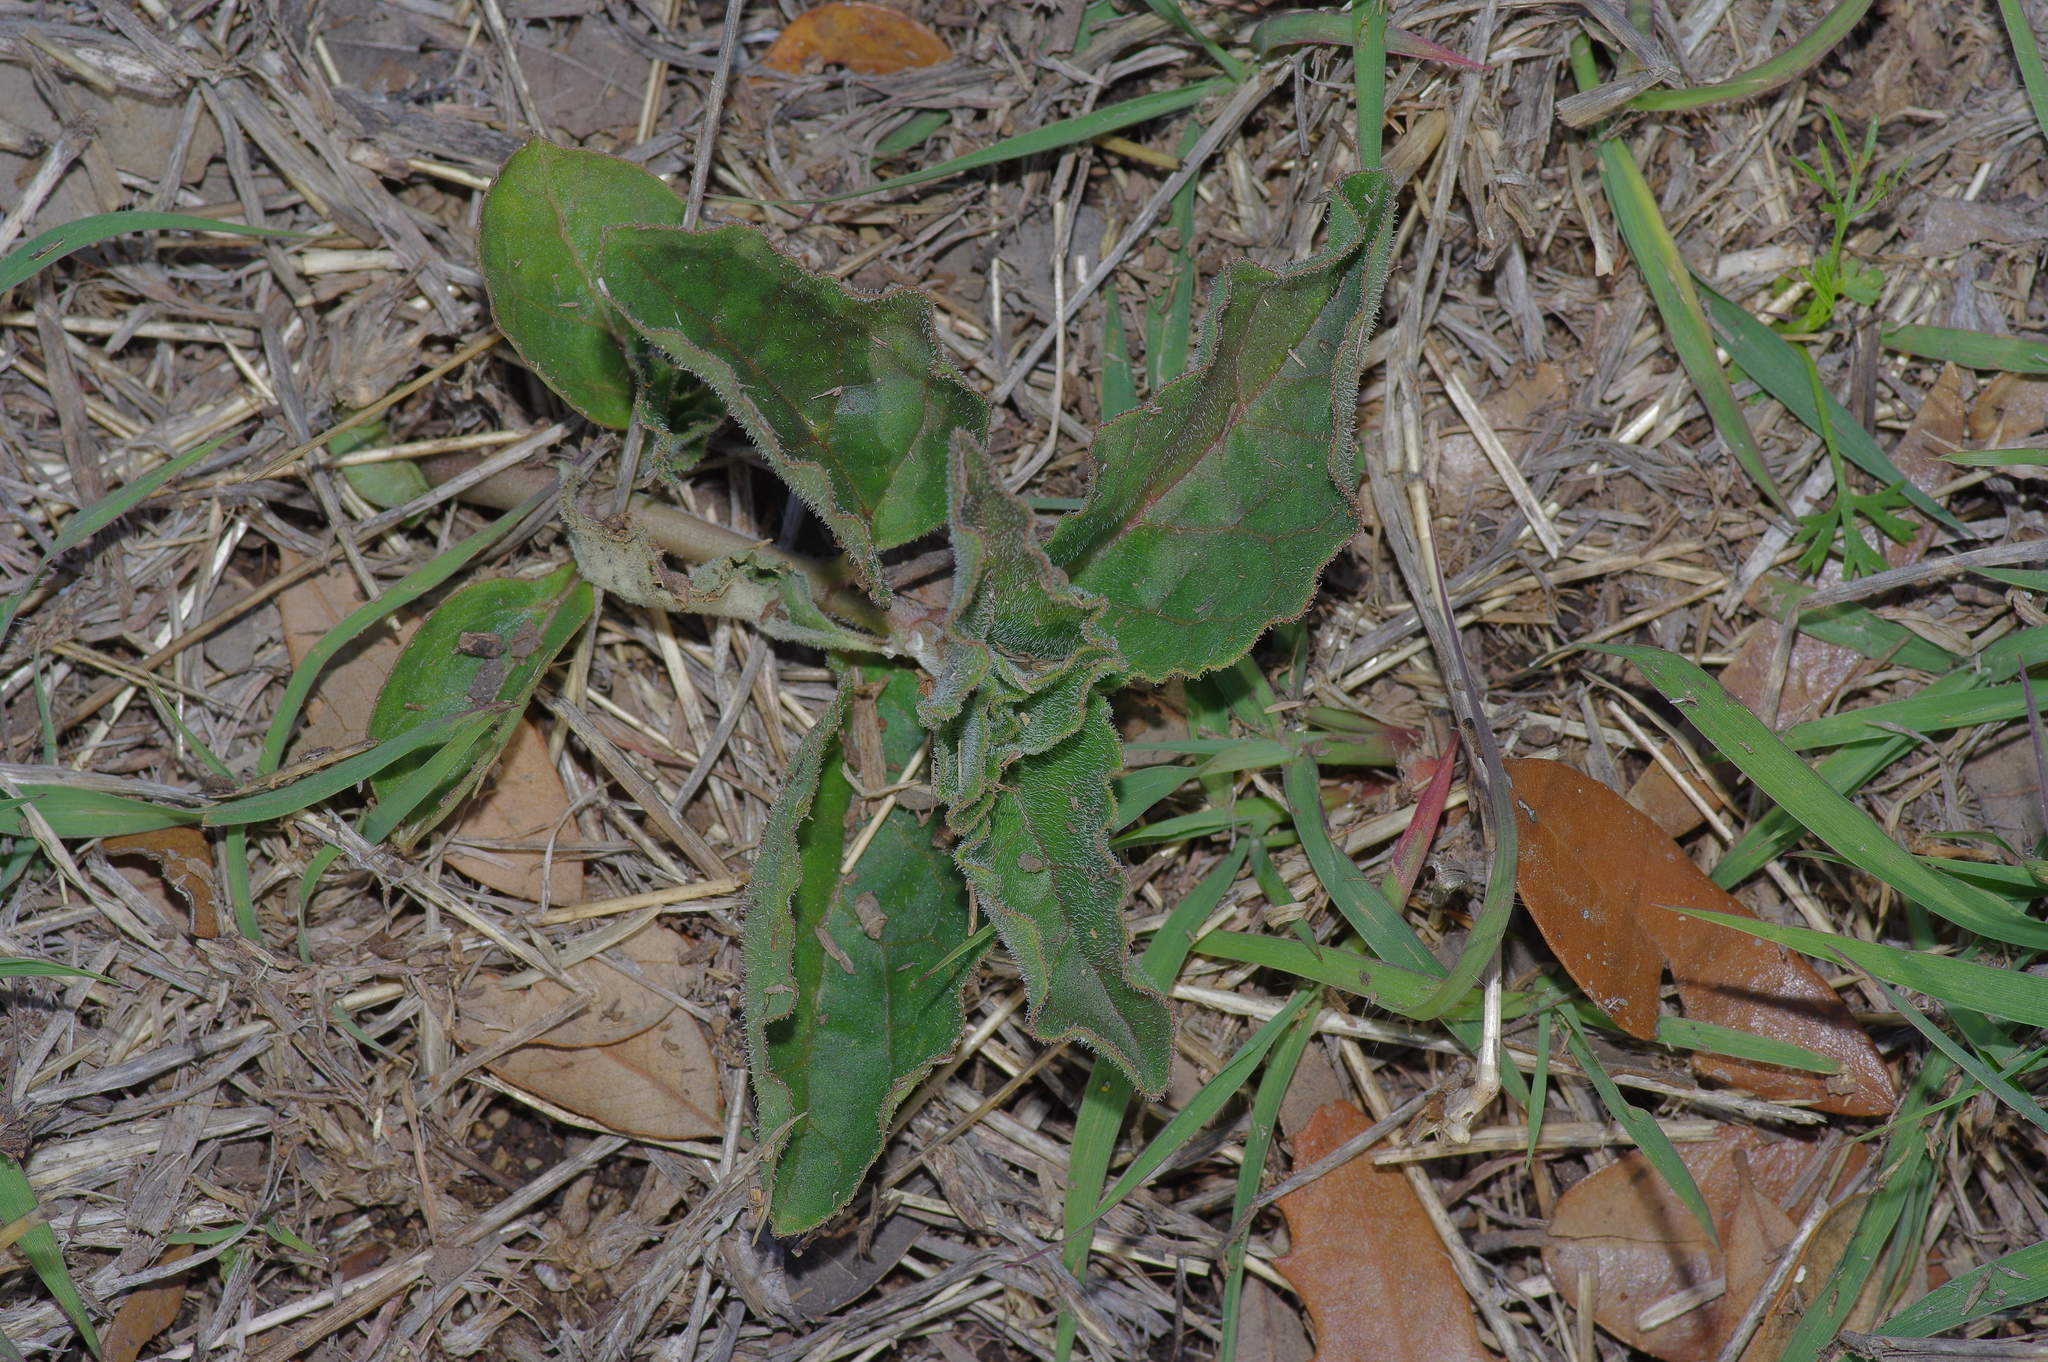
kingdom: Plantae
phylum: Tracheophyta
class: Magnoliopsida
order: Gentianales
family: Apocynaceae
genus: Asclepias
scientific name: Asclepias oenotheroides
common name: Zizotes milkweed
